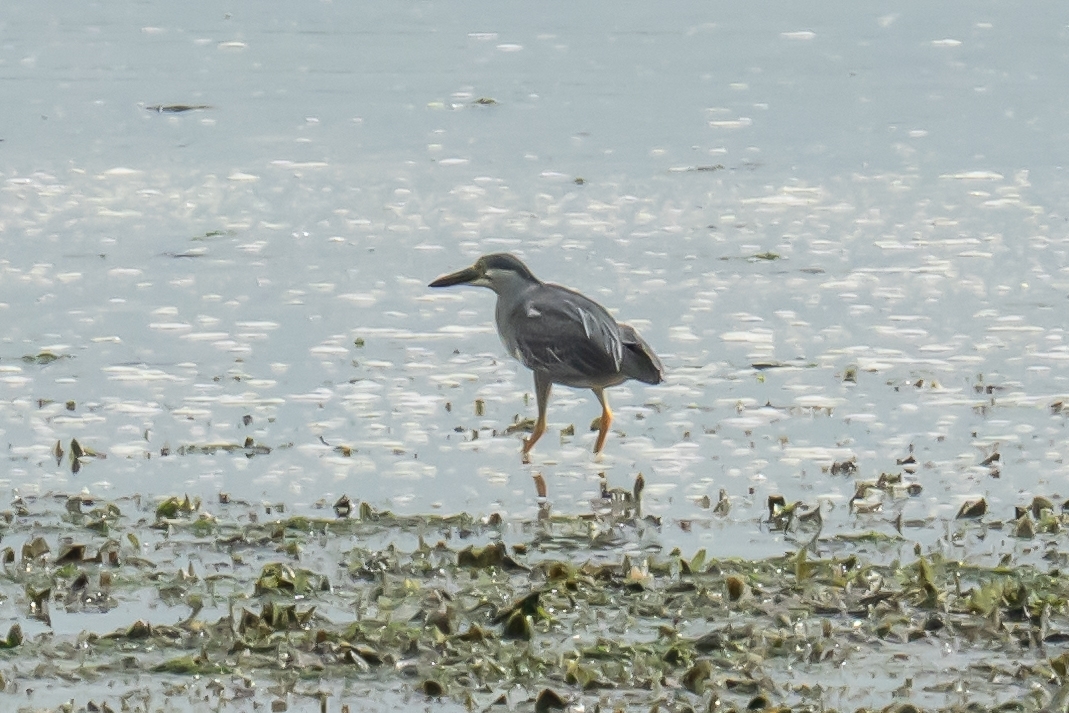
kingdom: Animalia
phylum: Chordata
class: Aves
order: Pelecaniformes
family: Ardeidae
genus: Butorides
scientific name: Butorides striata
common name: Striated heron
